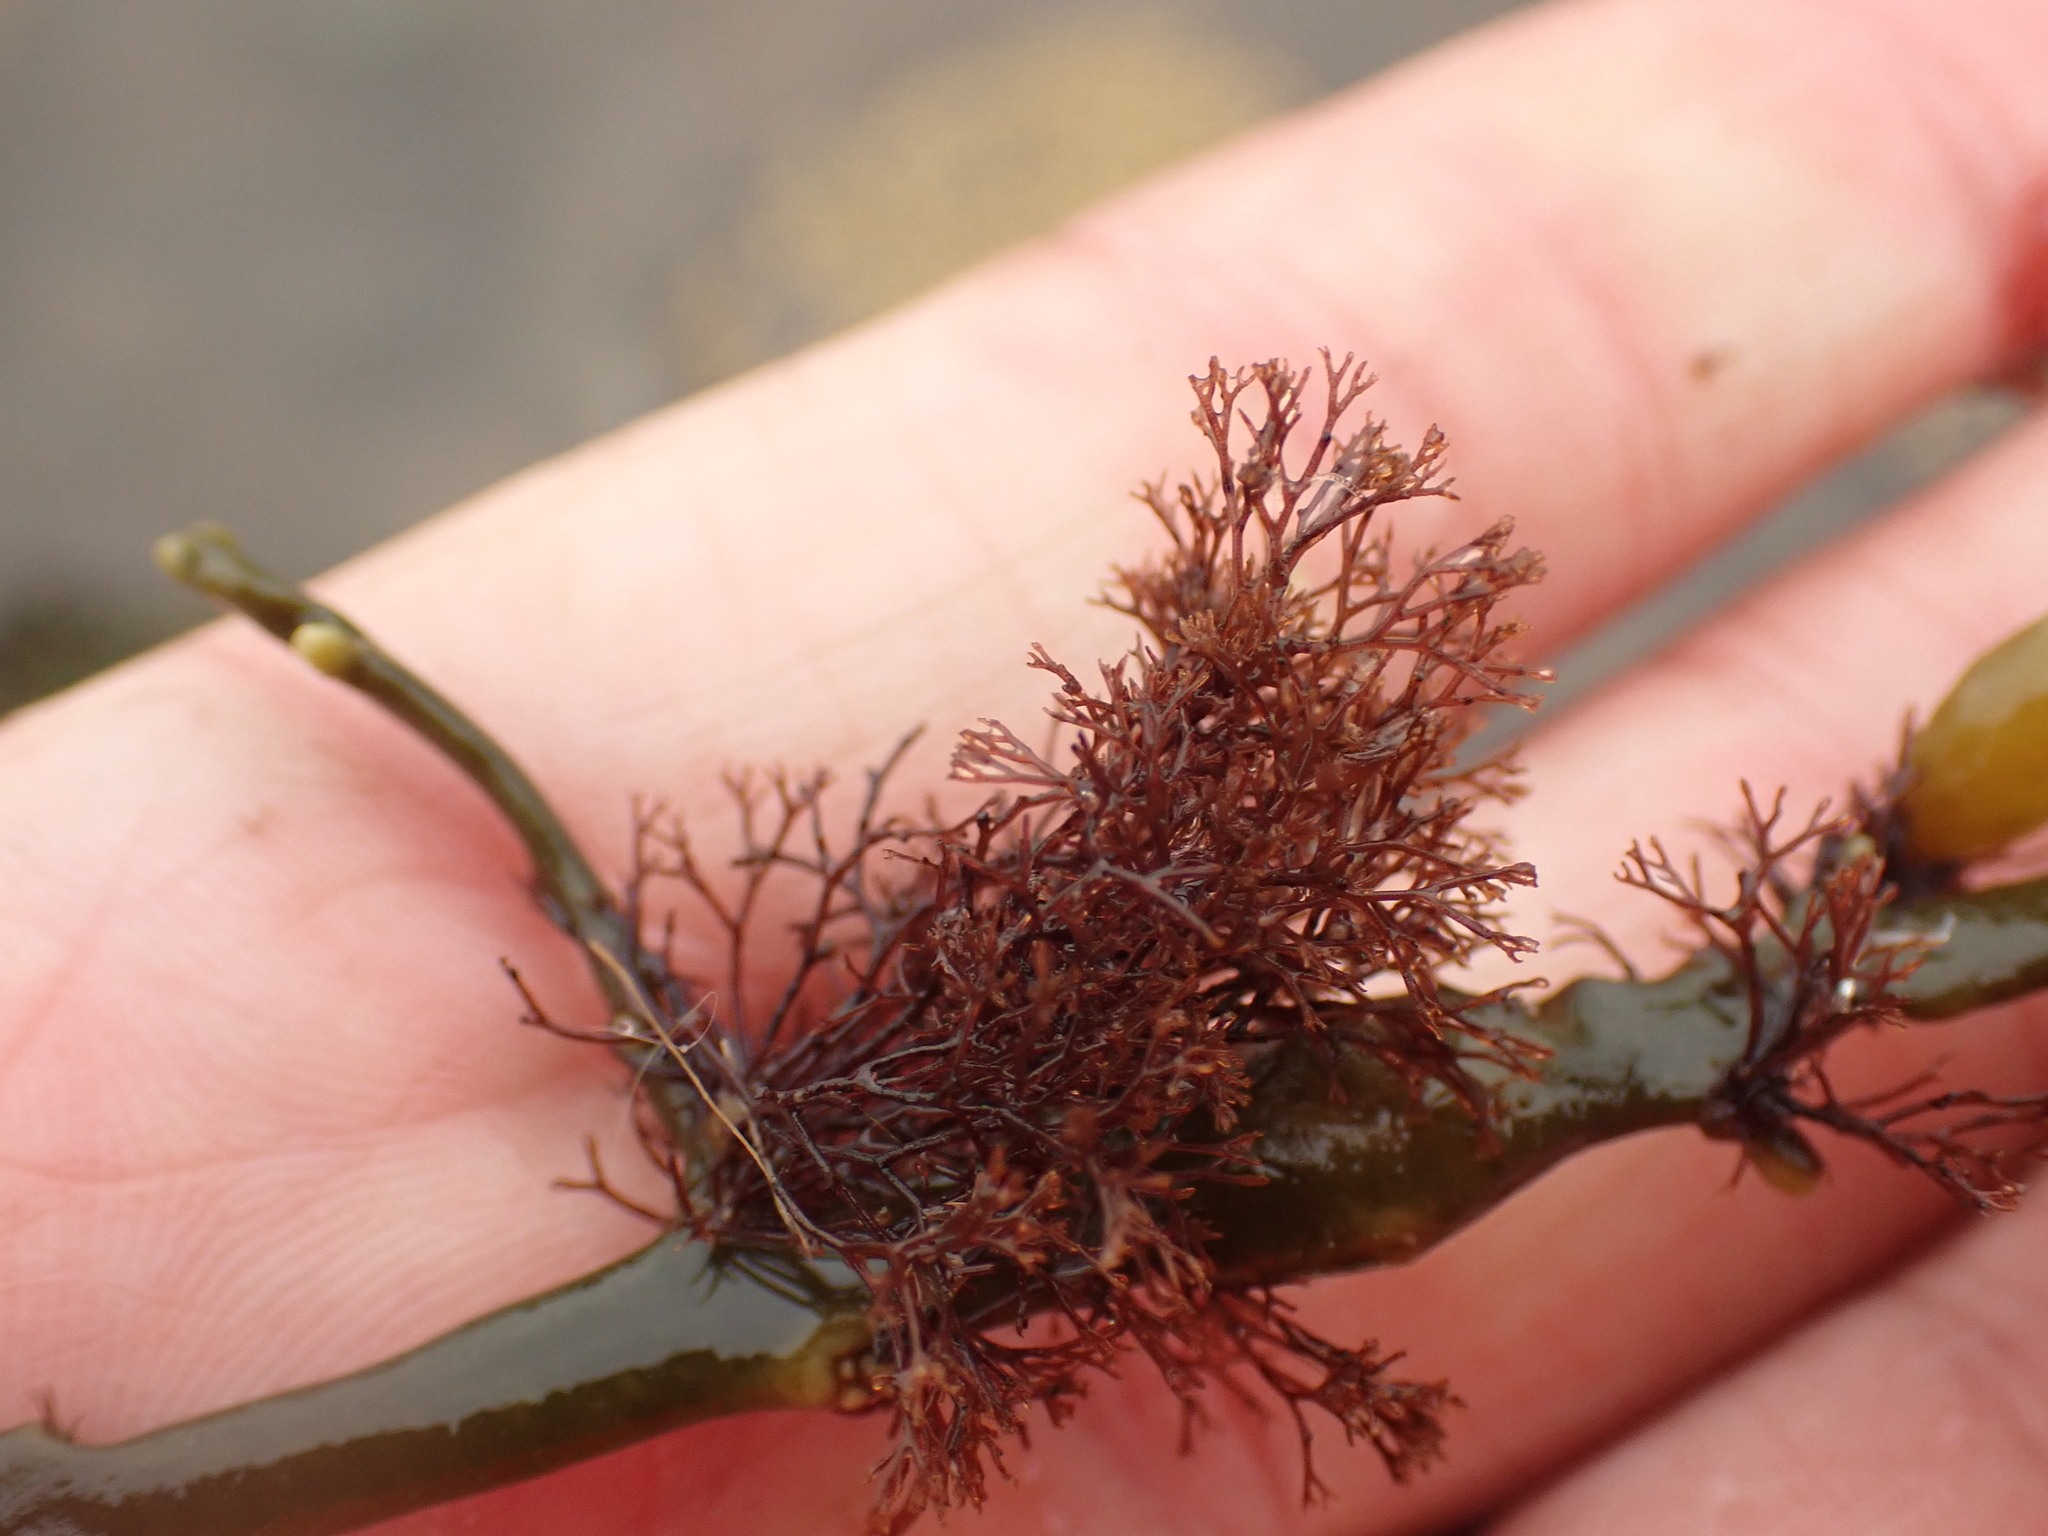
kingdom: Plantae
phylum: Rhodophyta
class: Florideophyceae
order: Ceramiales
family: Rhodomelaceae
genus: Vertebrata
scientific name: Vertebrata lanosa
